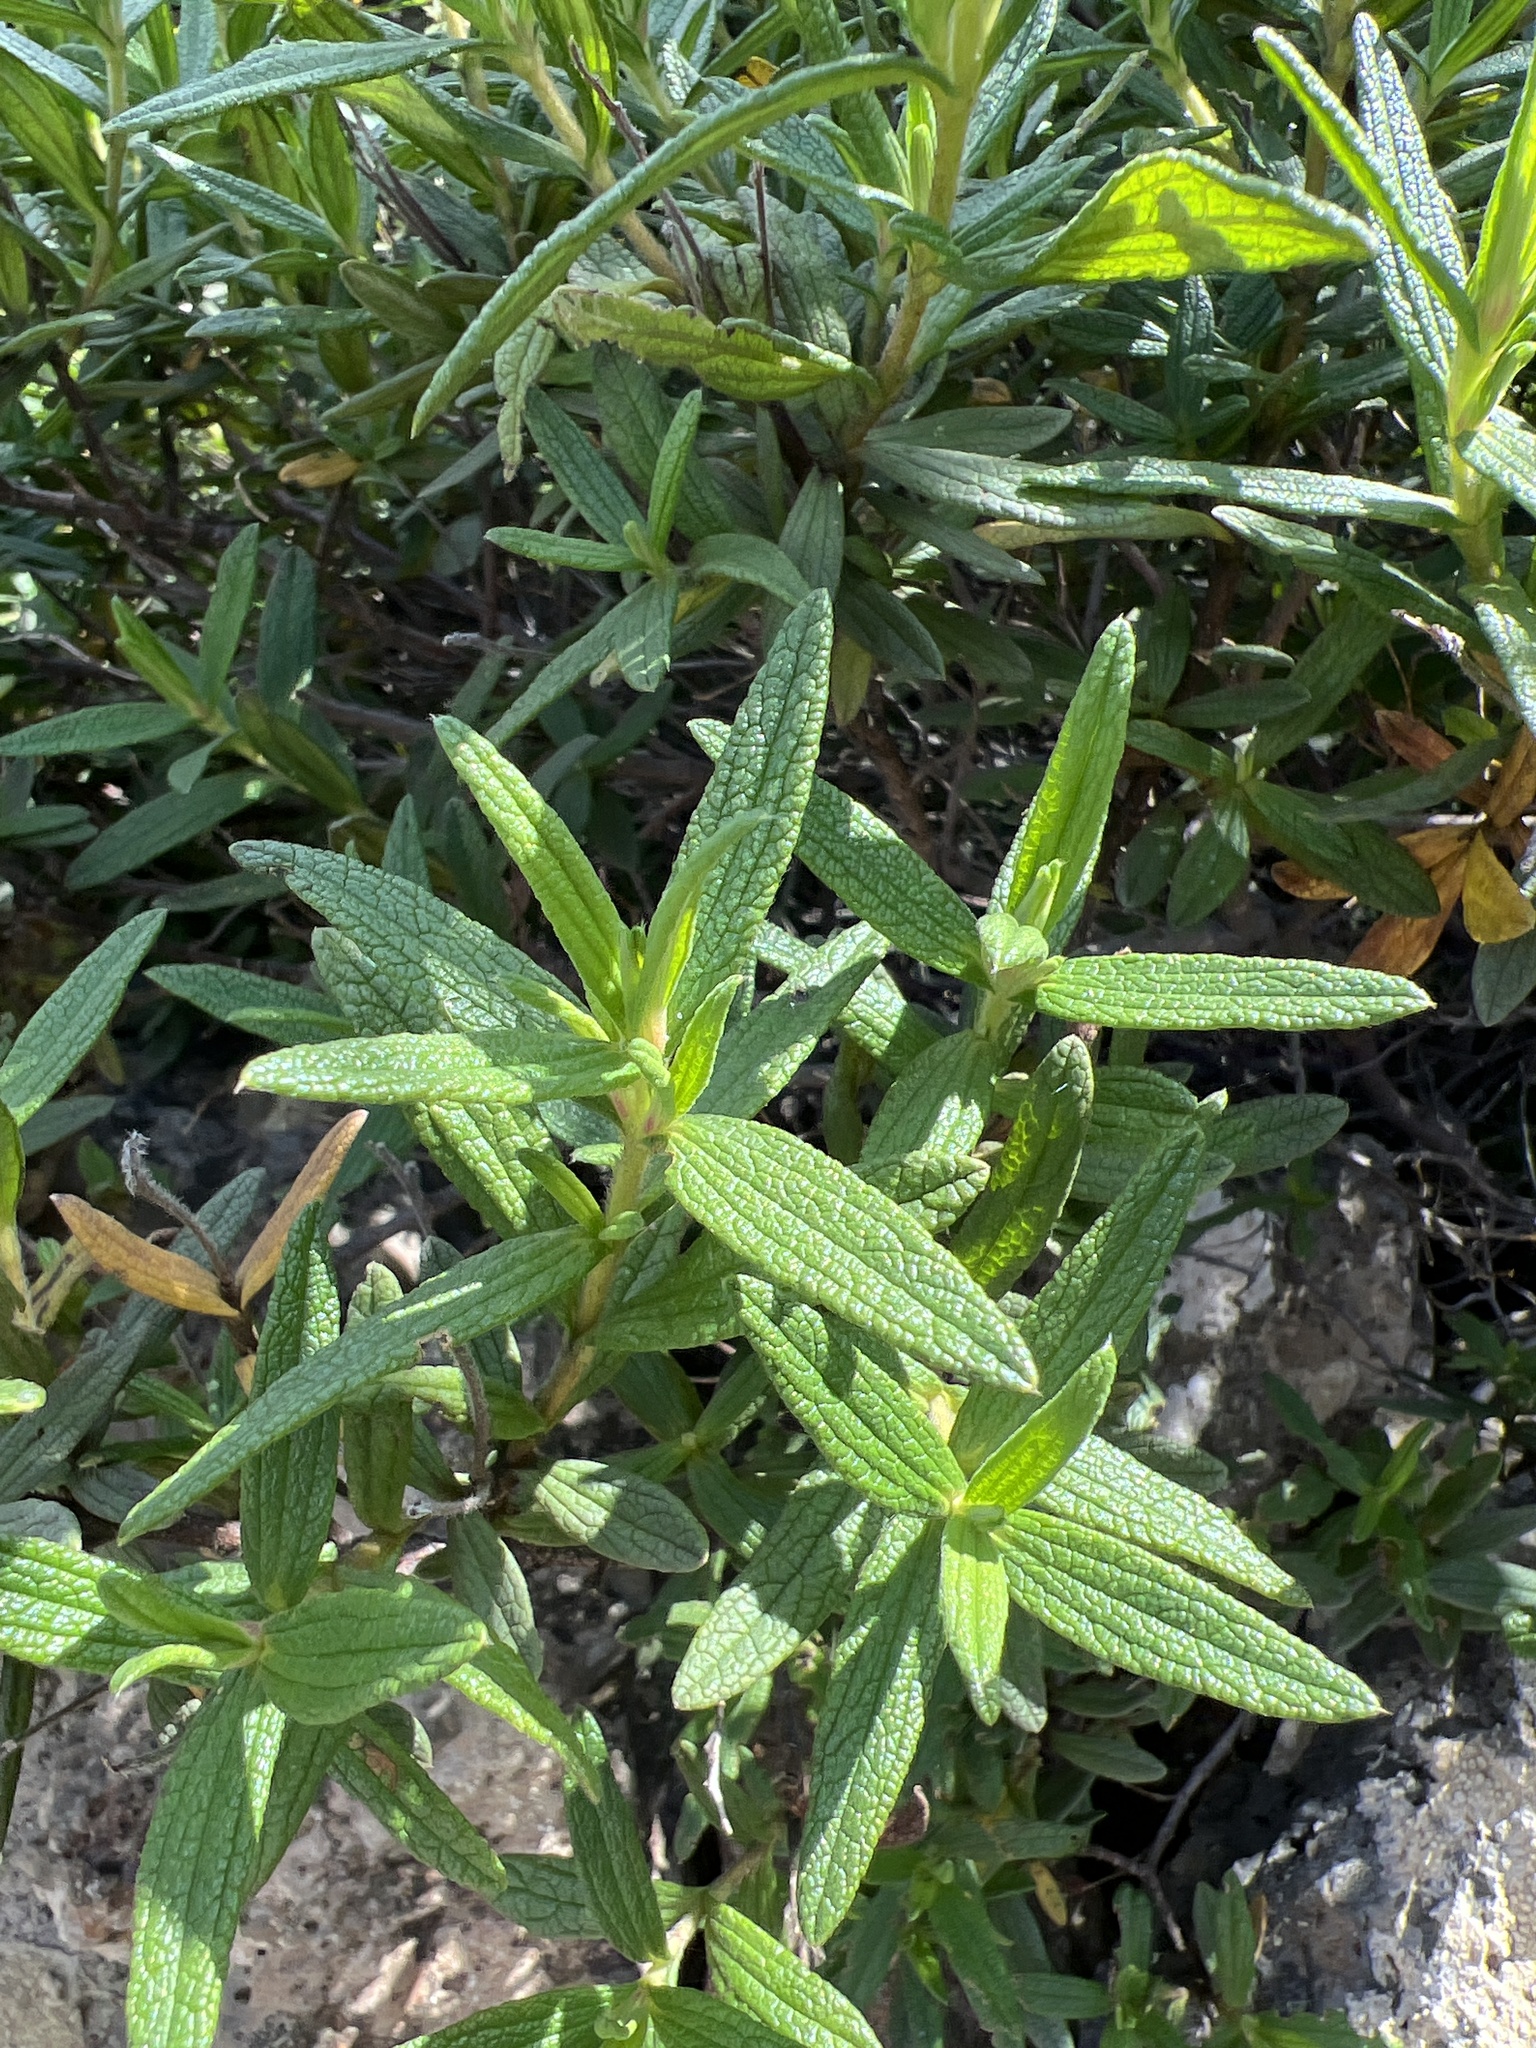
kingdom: Plantae
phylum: Tracheophyta
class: Magnoliopsida
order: Malvales
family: Cistaceae
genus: Cistus
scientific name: Cistus monspeliensis
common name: Montpelier cistus
